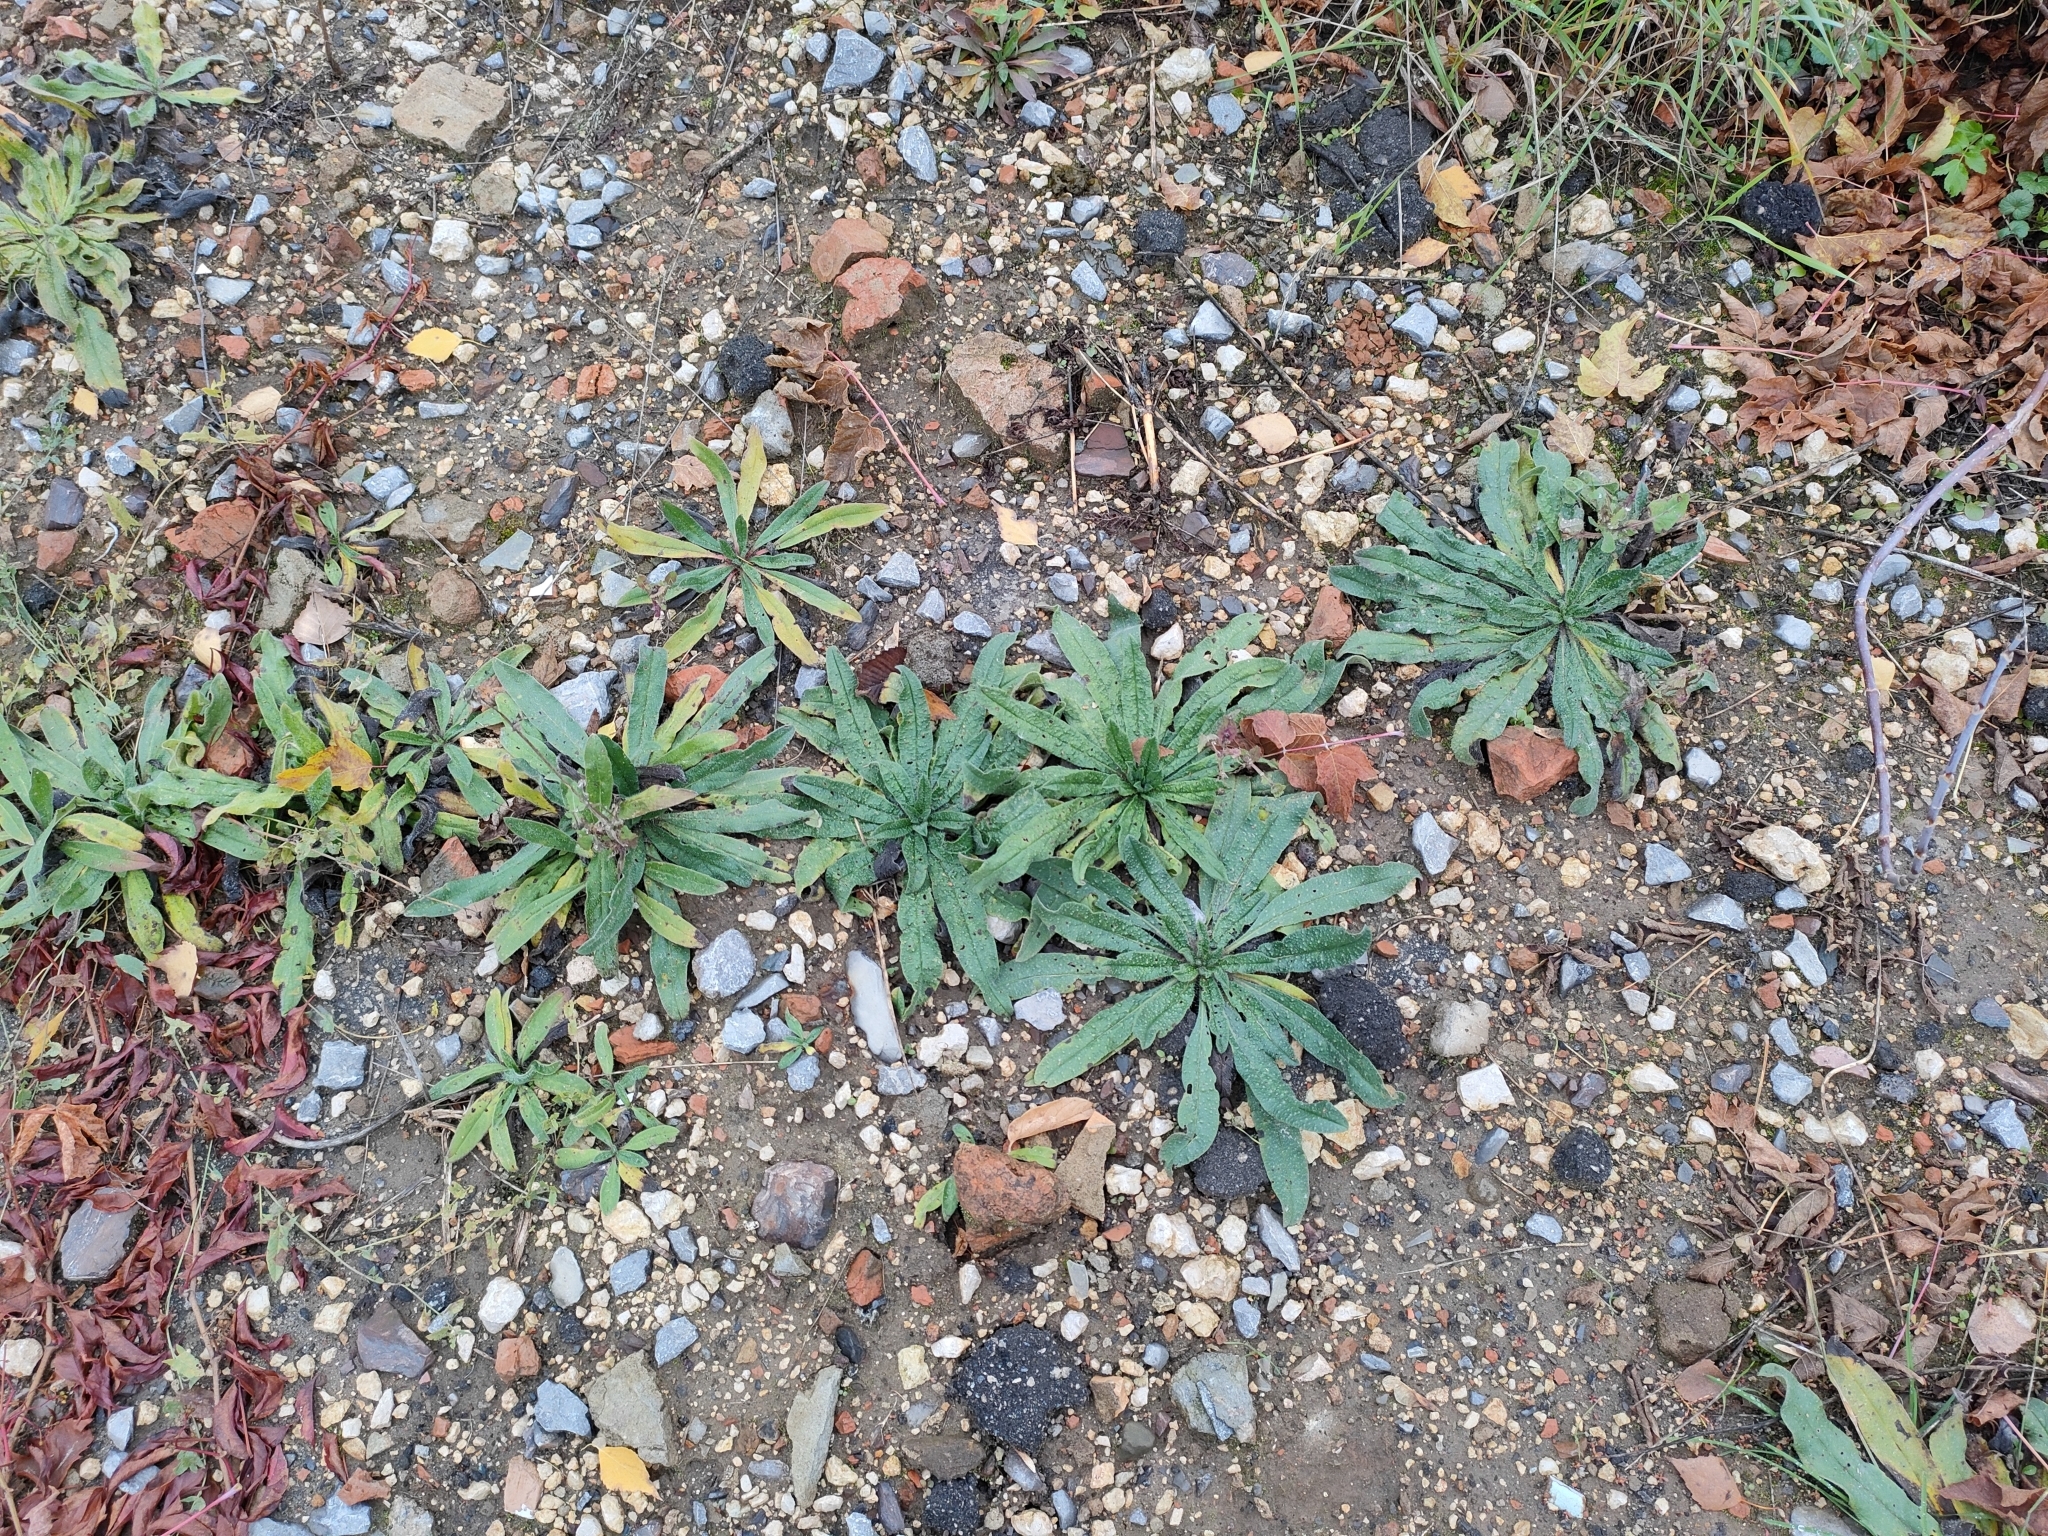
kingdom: Plantae
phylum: Tracheophyta
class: Magnoliopsida
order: Boraginales
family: Boraginaceae
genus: Echium
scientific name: Echium vulgare
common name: Common viper's bugloss
